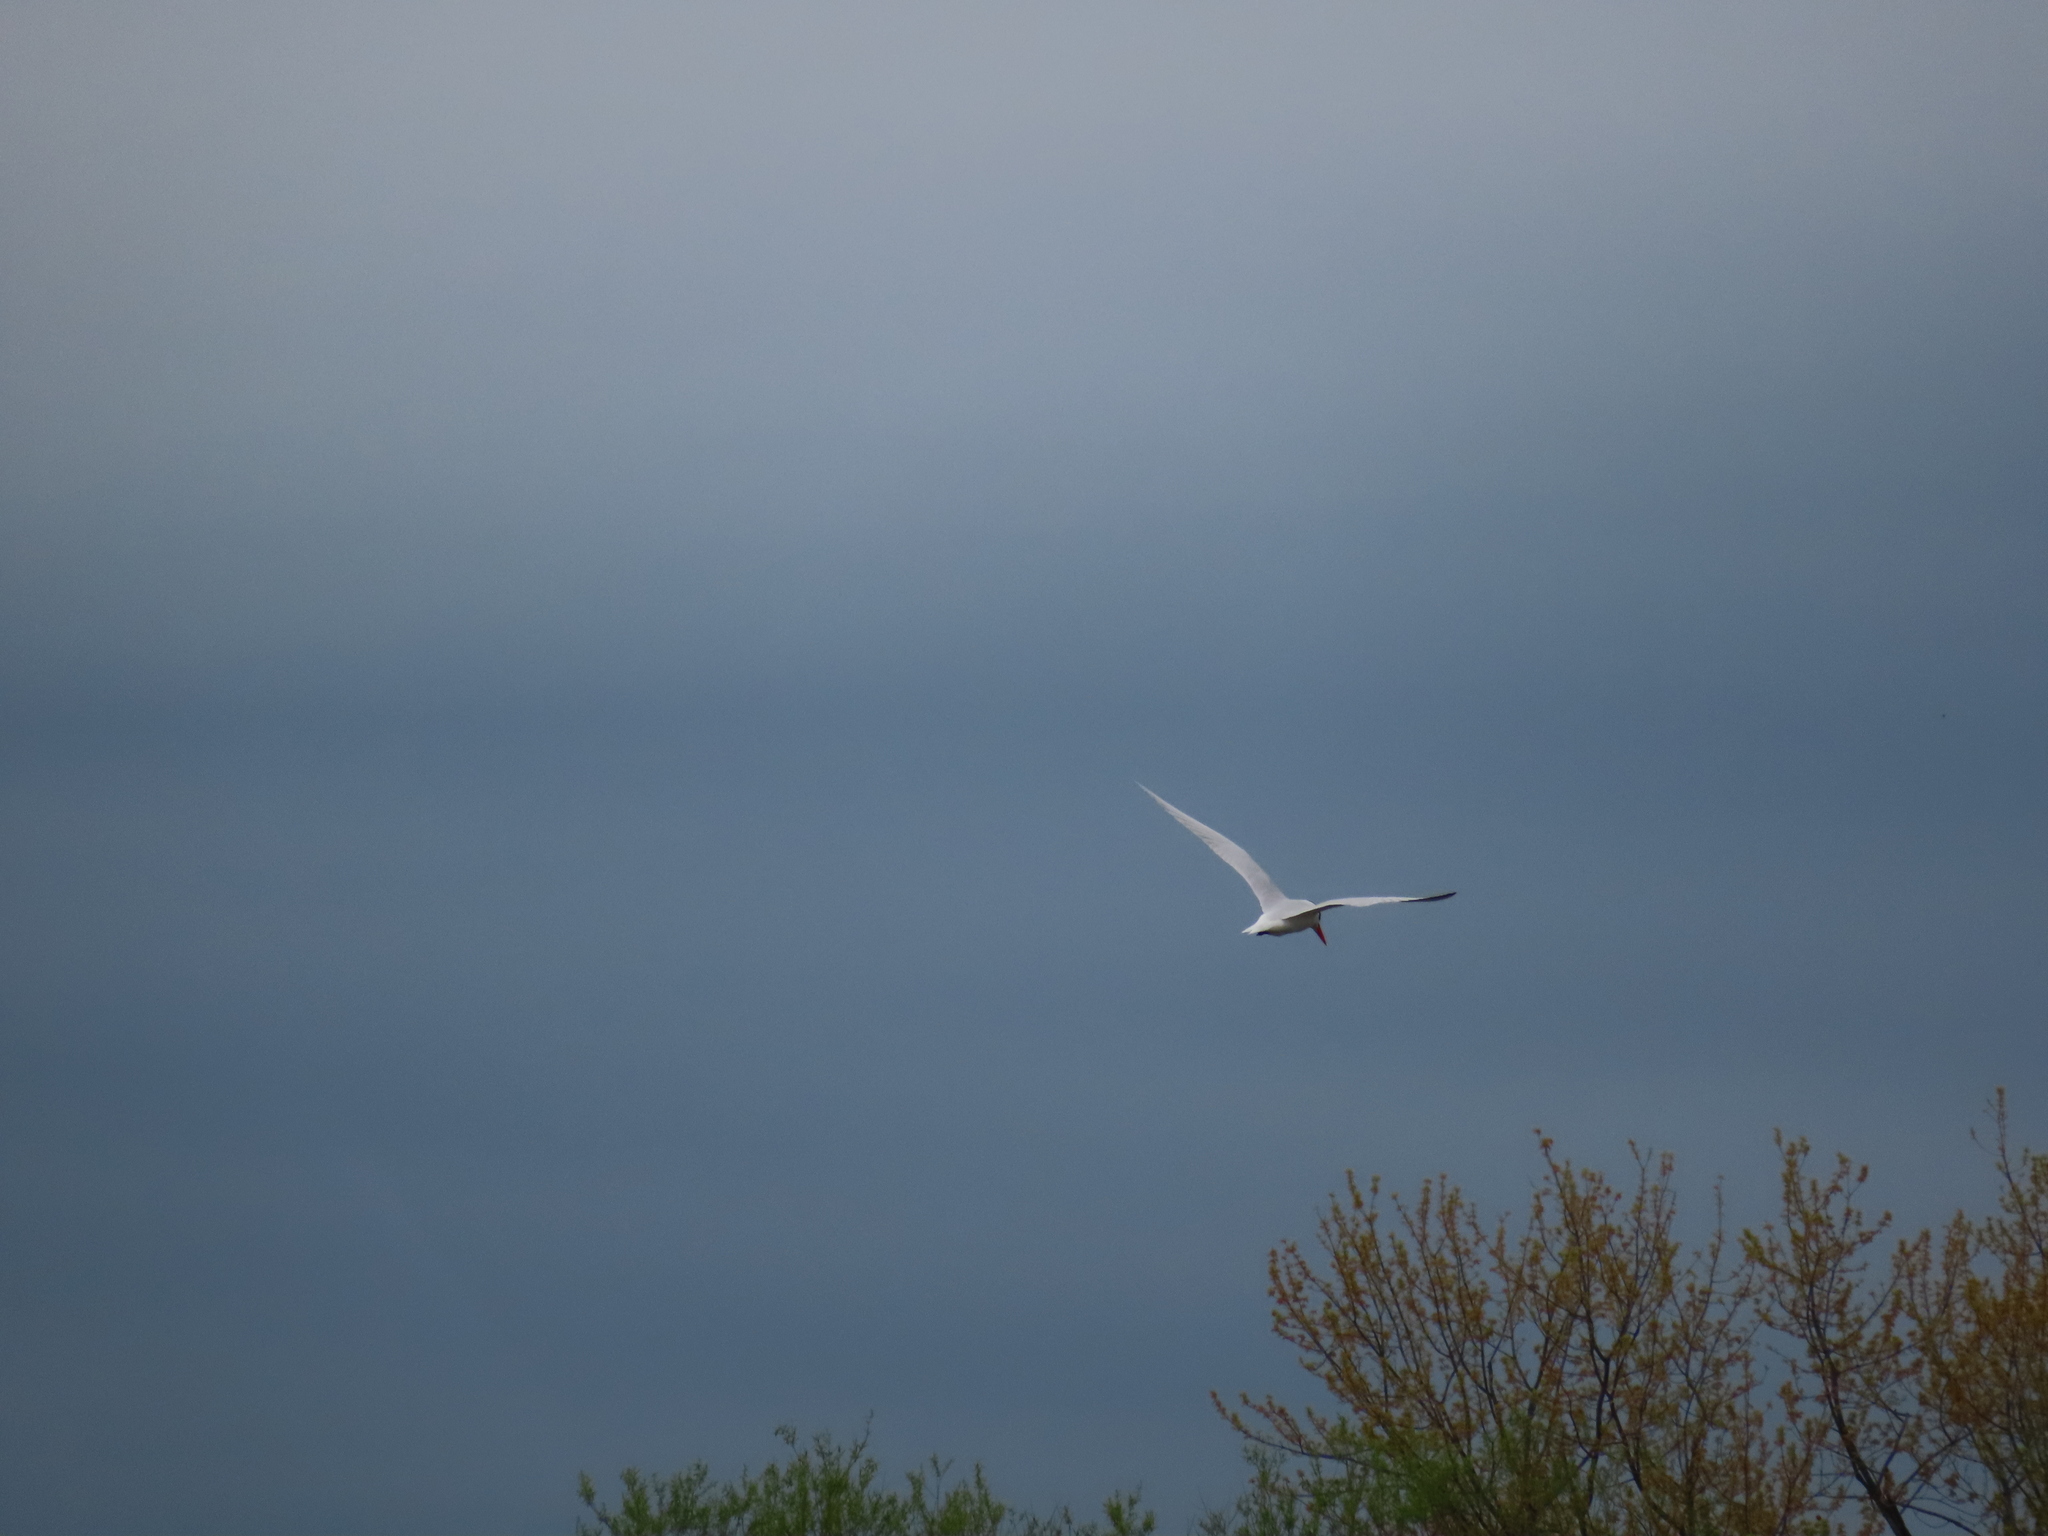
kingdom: Animalia
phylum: Chordata
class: Aves
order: Charadriiformes
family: Laridae
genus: Hydroprogne
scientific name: Hydroprogne caspia
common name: Caspian tern
